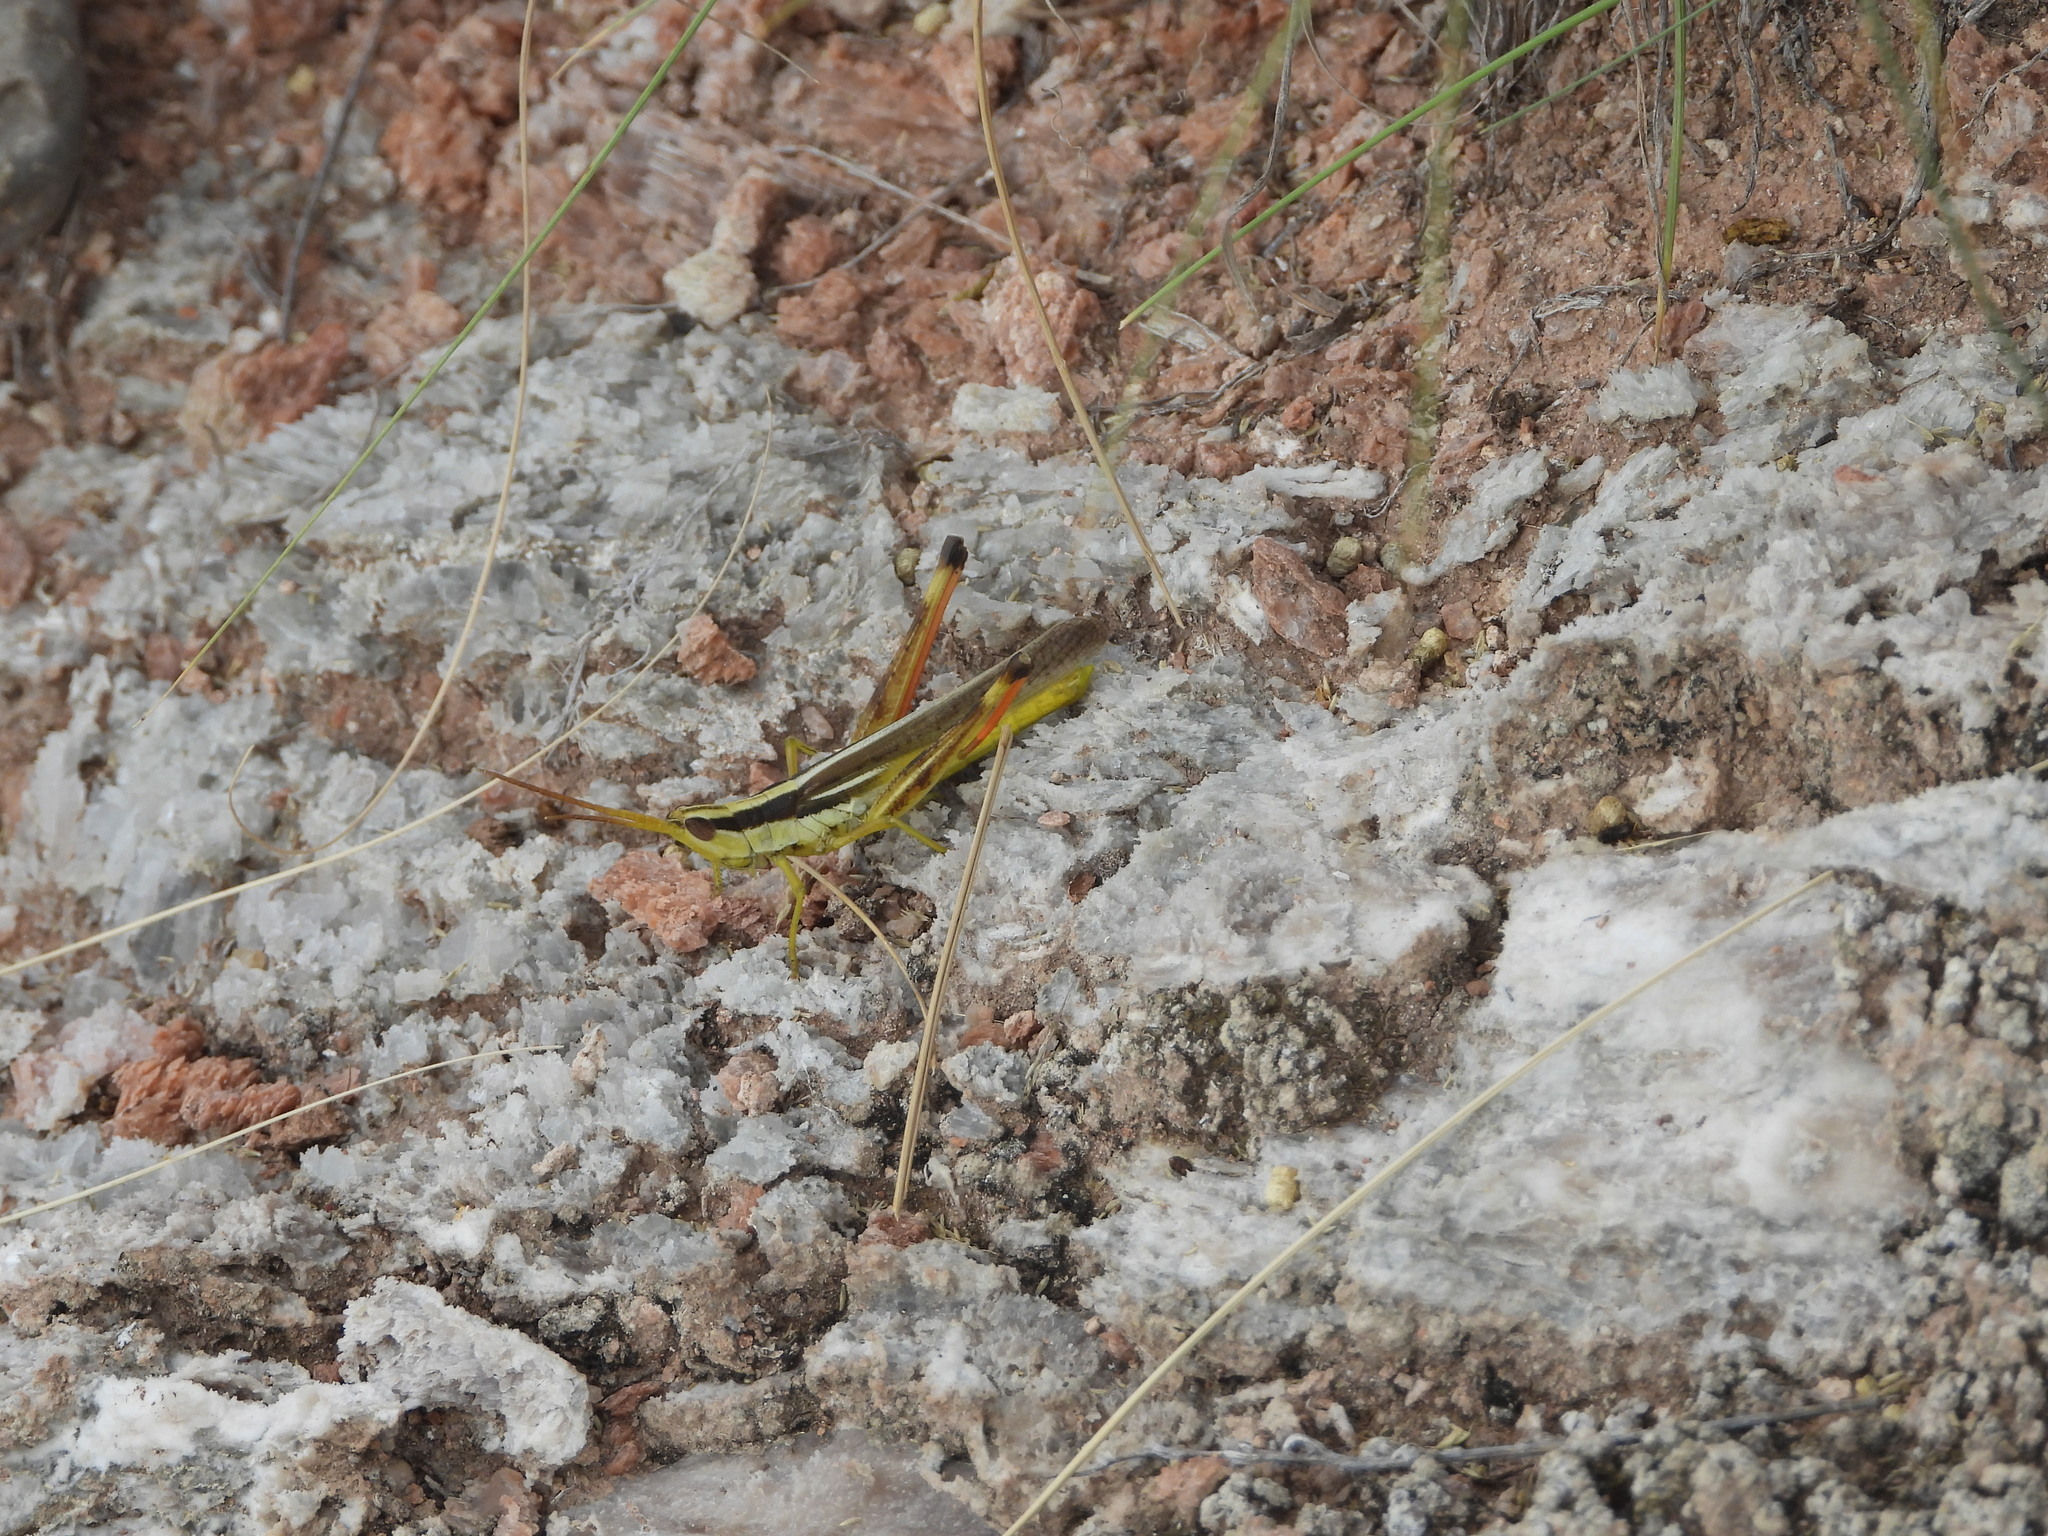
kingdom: Animalia
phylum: Arthropoda
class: Insecta
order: Orthoptera
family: Acrididae
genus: Mermiria
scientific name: Mermiria bivittata
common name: Two-striped mermiria grasshopper
